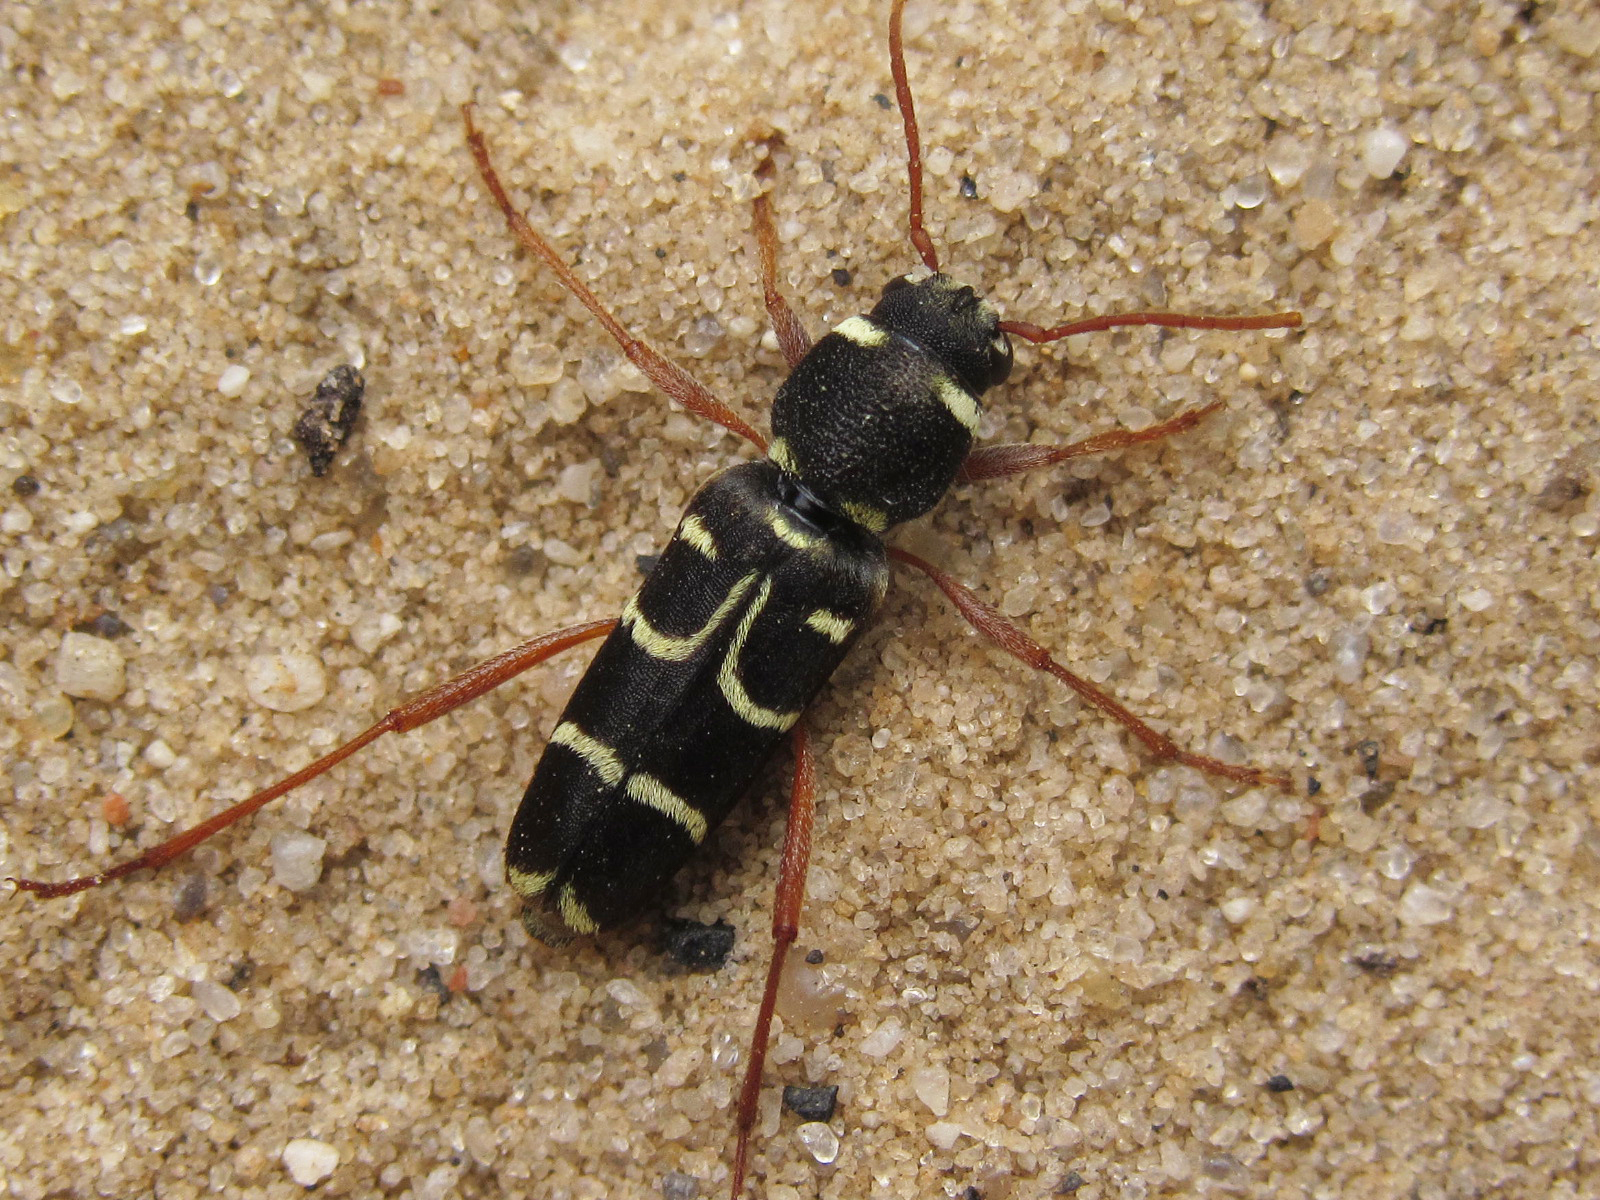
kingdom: Animalia
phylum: Arthropoda
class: Insecta
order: Coleoptera
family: Cerambycidae
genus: Xylotrechus
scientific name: Xylotrechus arvicola
